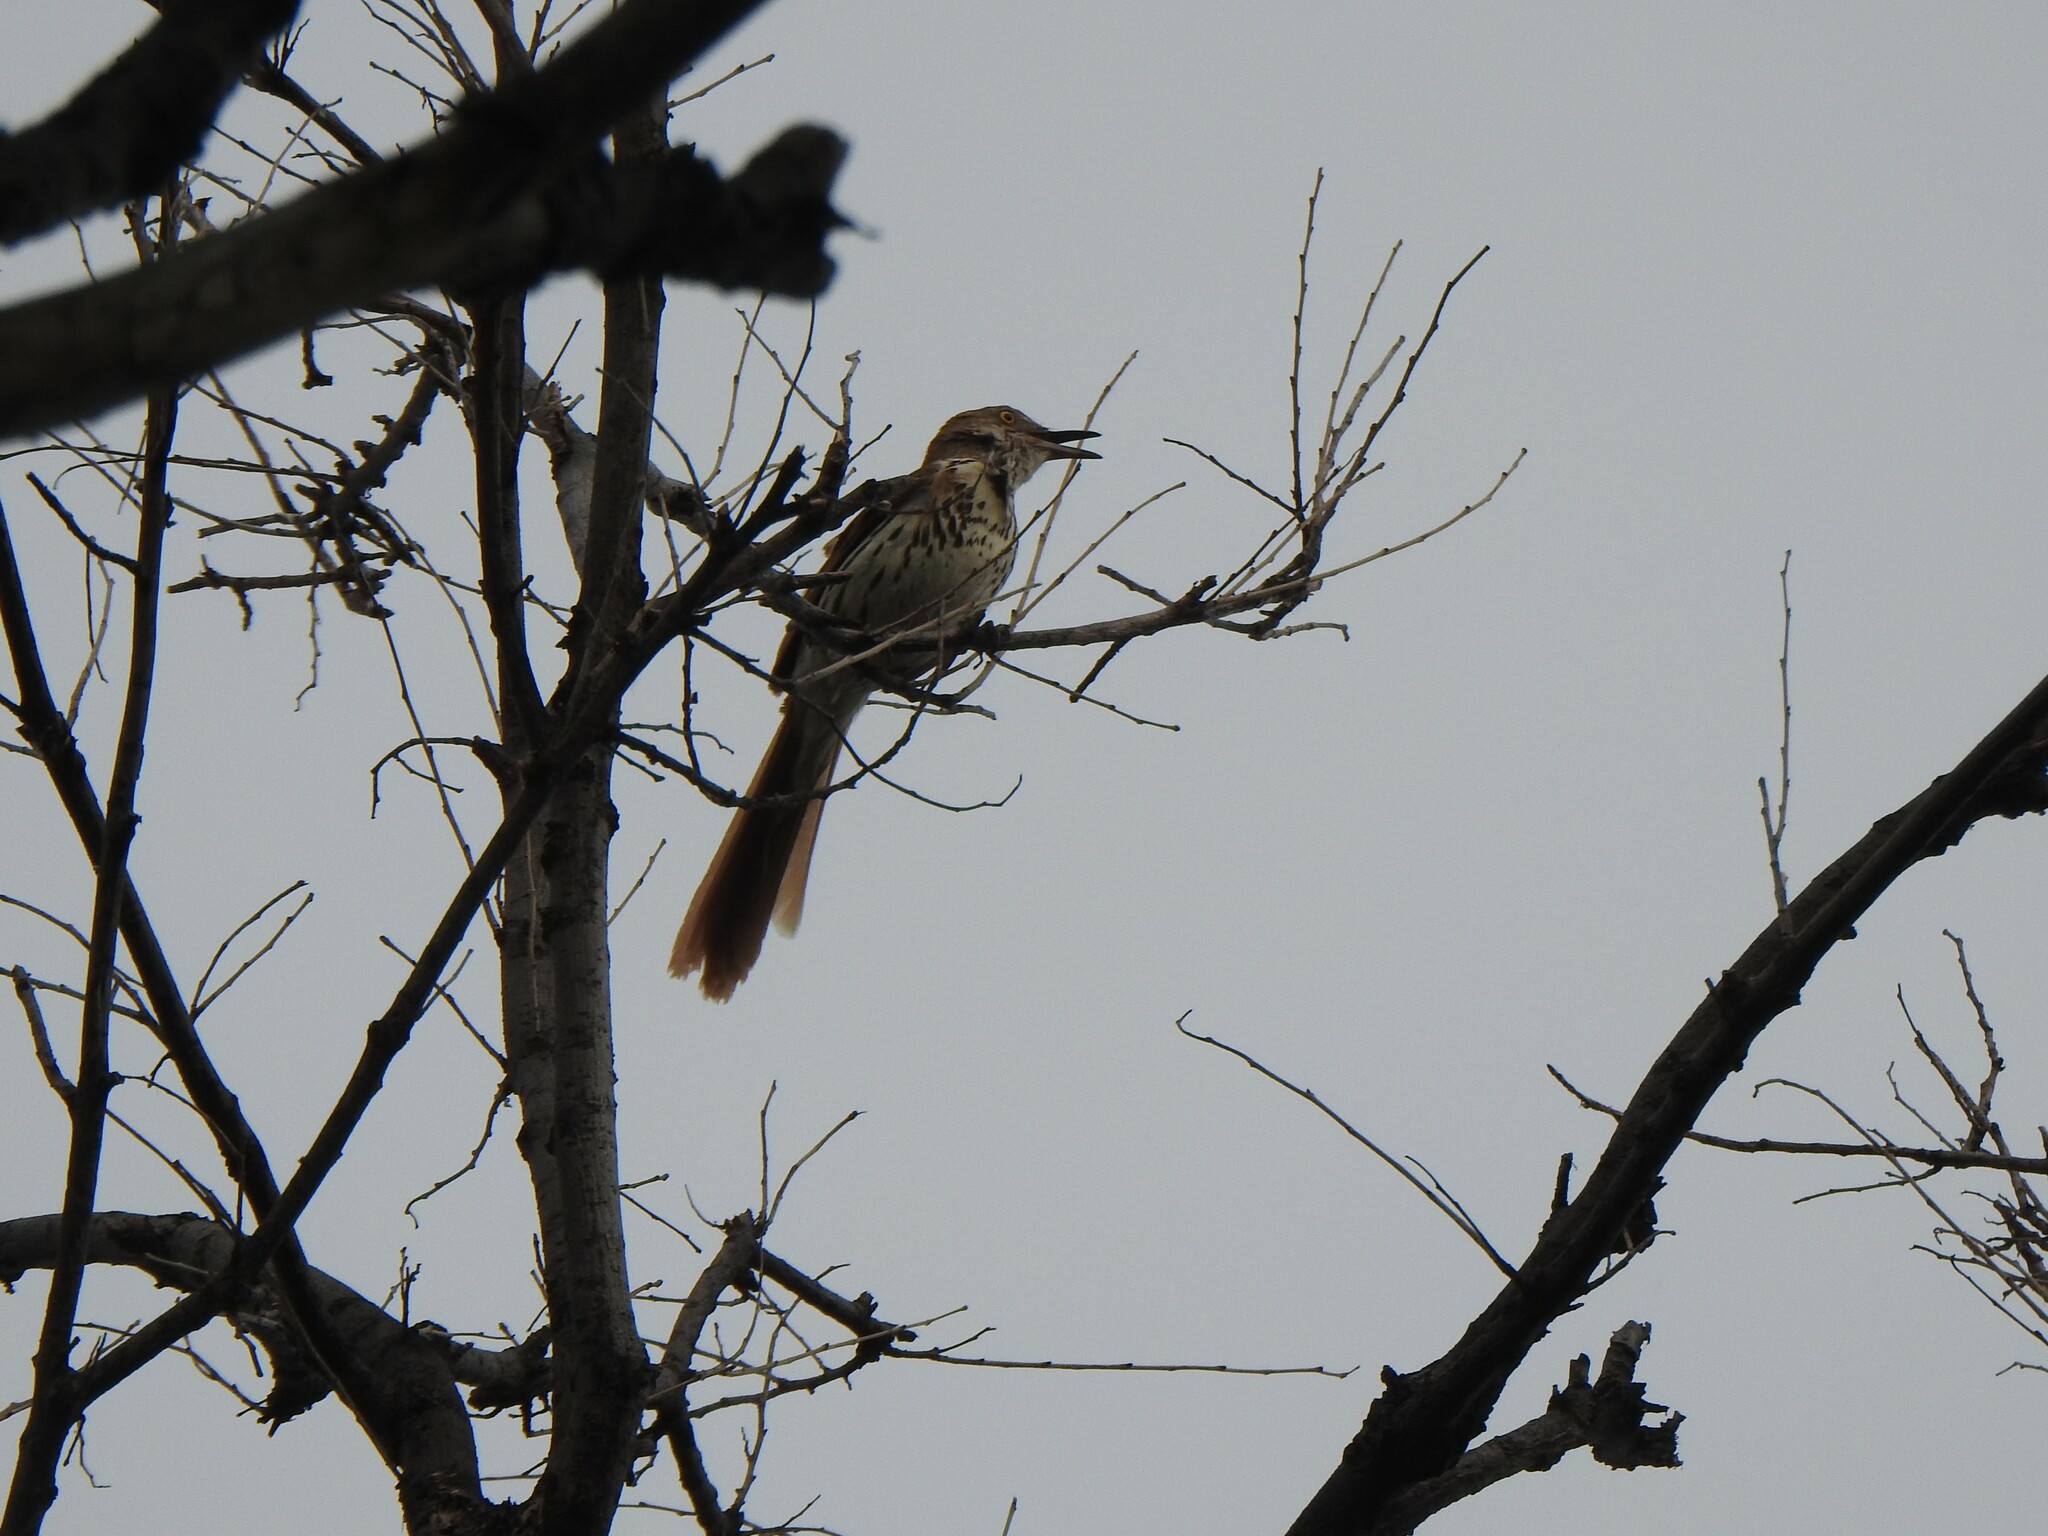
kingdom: Animalia
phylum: Chordata
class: Aves
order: Passeriformes
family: Mimidae
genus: Toxostoma
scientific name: Toxostoma rufum
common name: Brown thrasher
